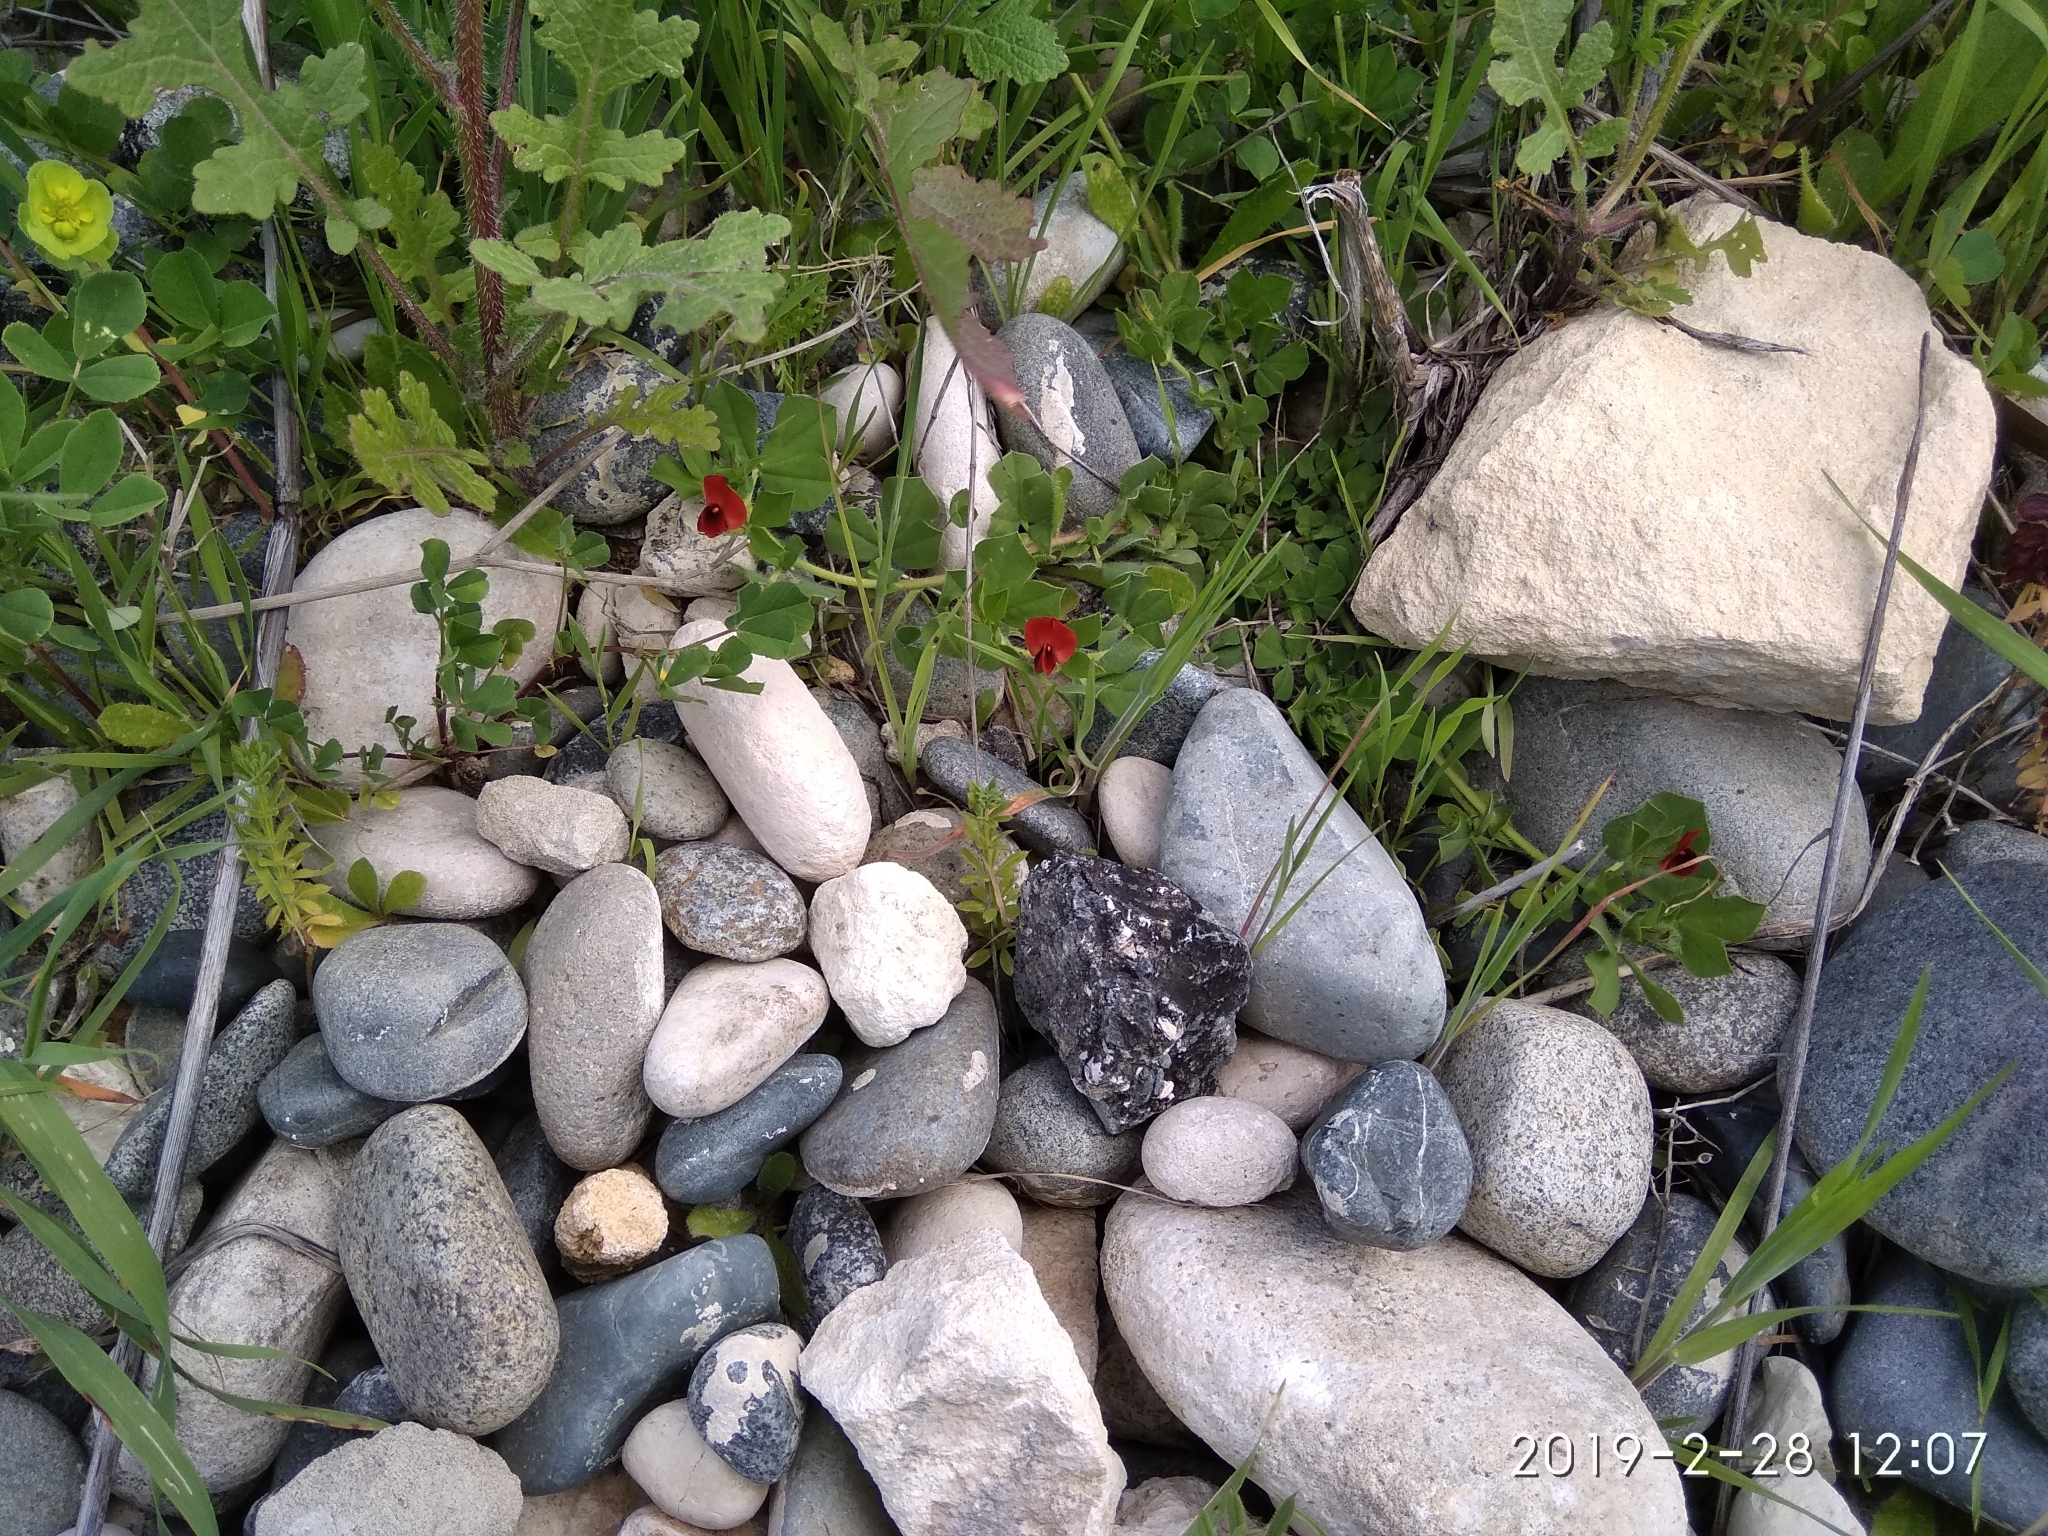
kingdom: Plantae
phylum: Tracheophyta
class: Magnoliopsida
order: Fabales
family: Fabaceae
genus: Lotus
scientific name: Lotus tetragonolobus
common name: Asparagus-pea
